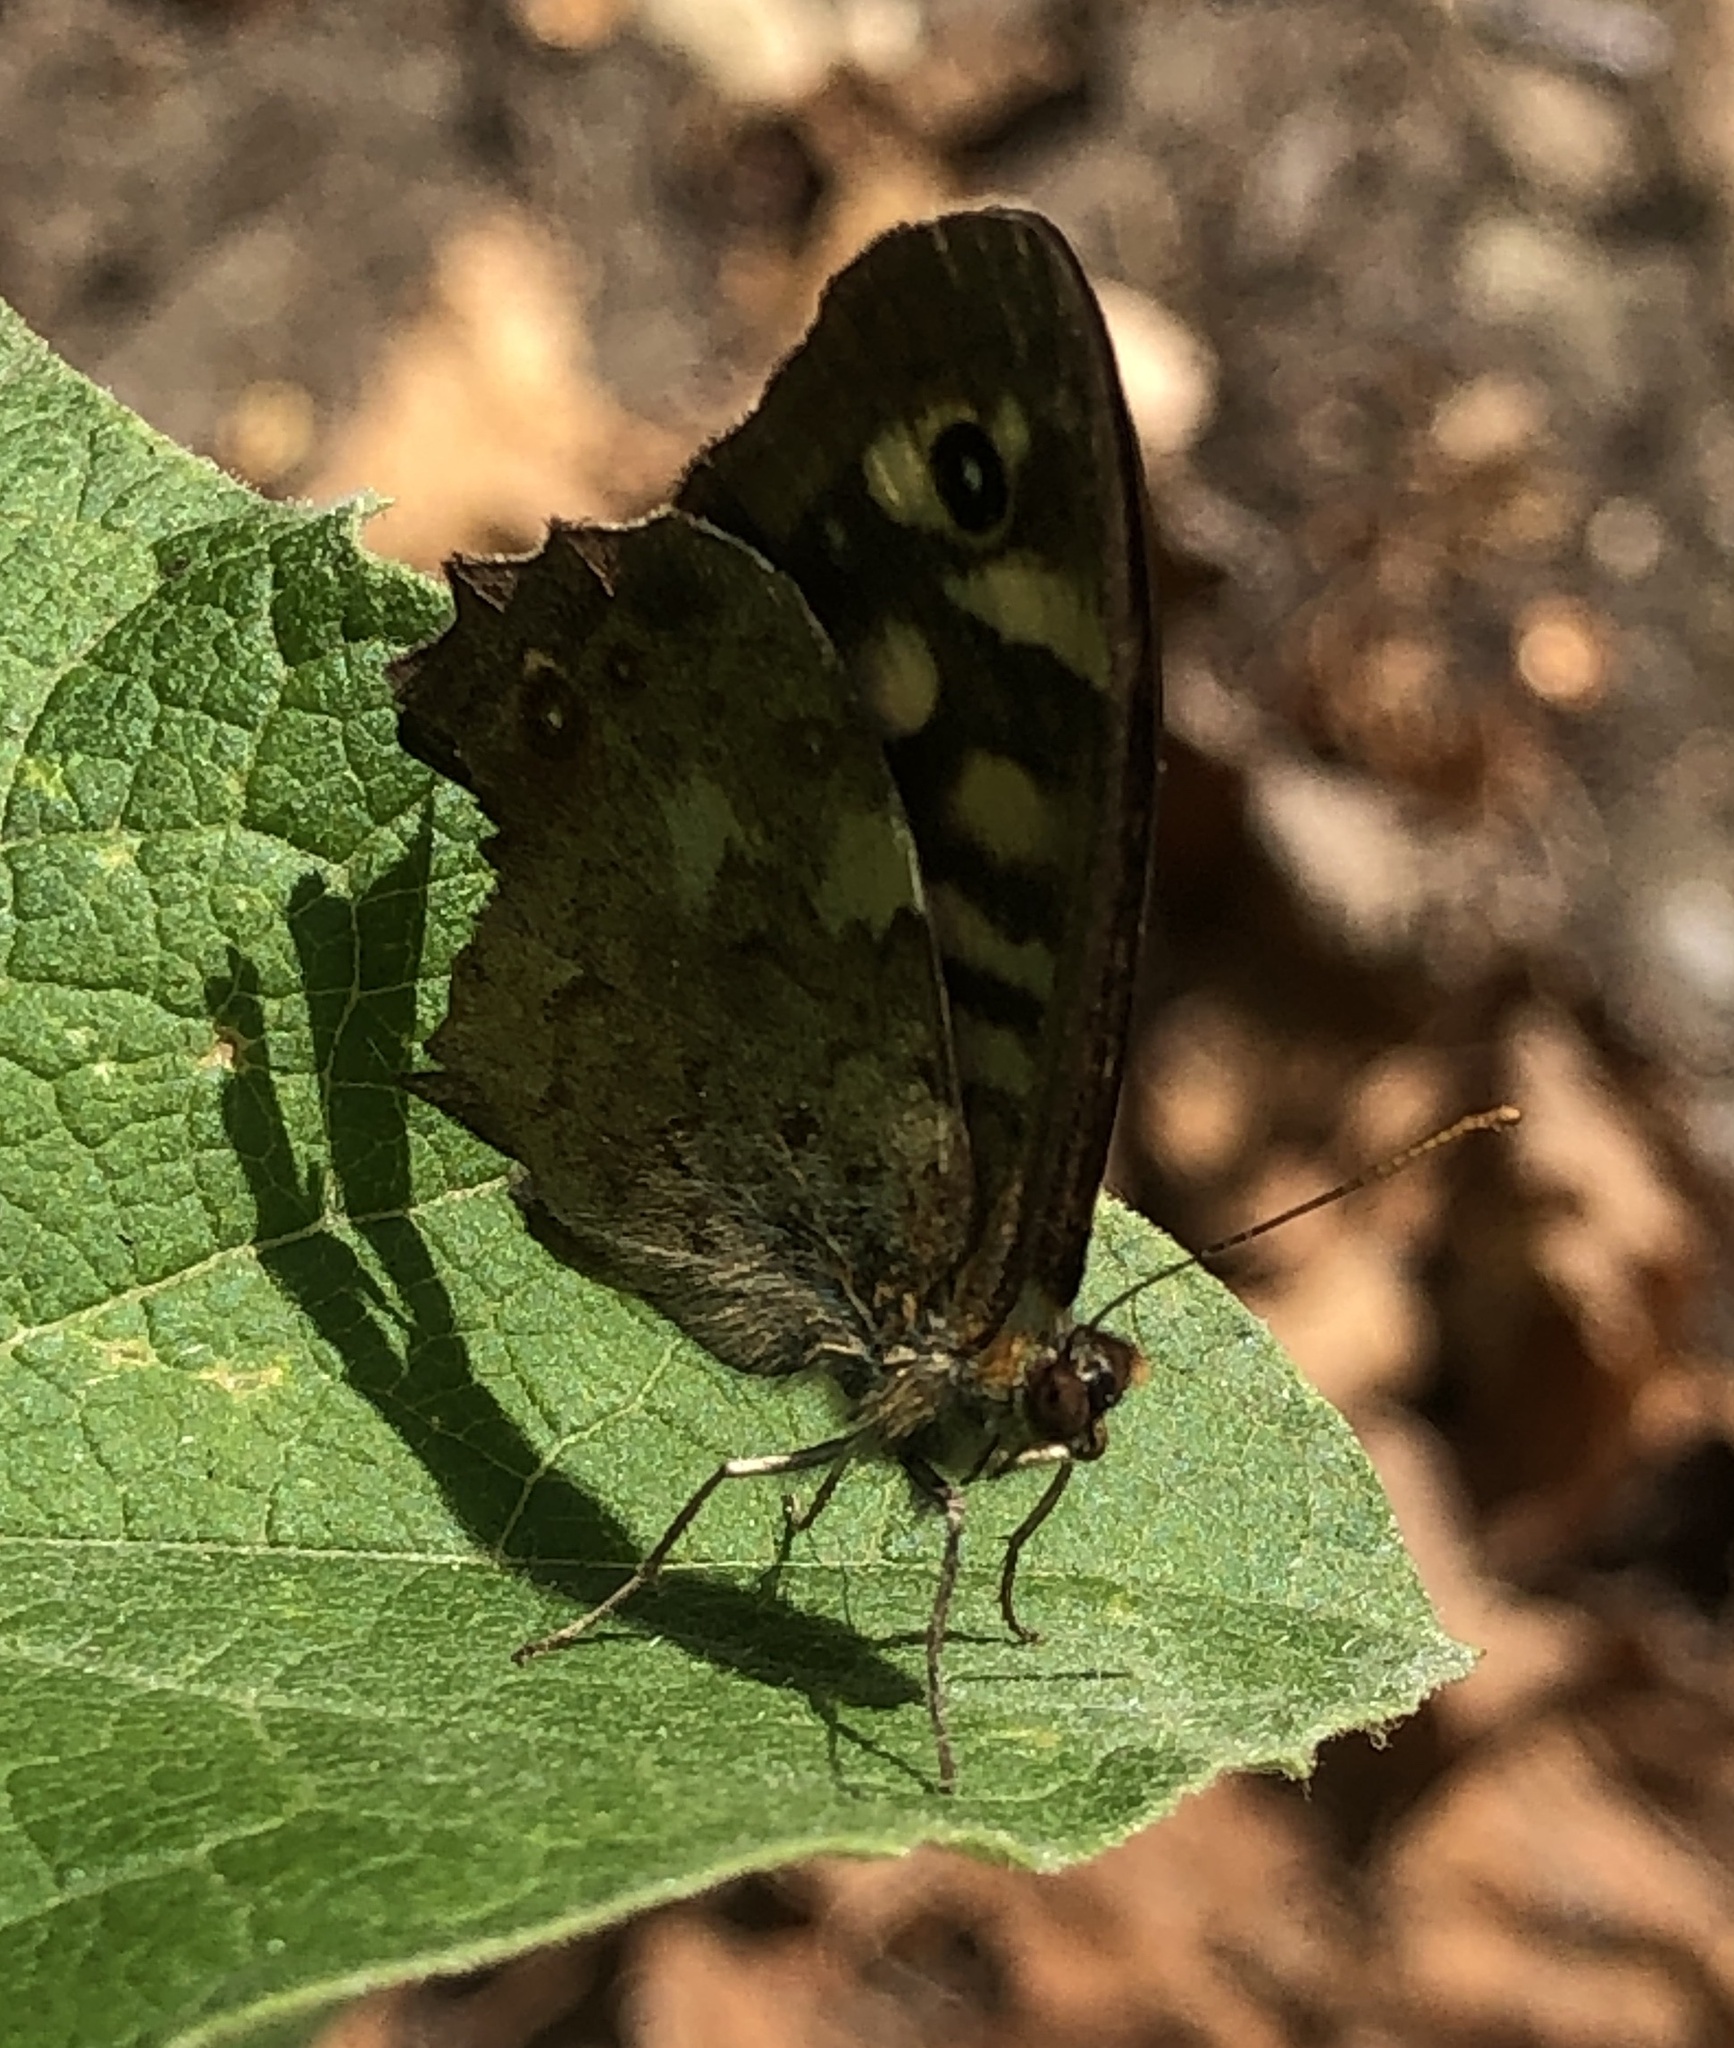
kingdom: Animalia
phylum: Arthropoda
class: Insecta
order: Lepidoptera
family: Nymphalidae
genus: Pararge
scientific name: Pararge aegeria
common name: Speckled wood
